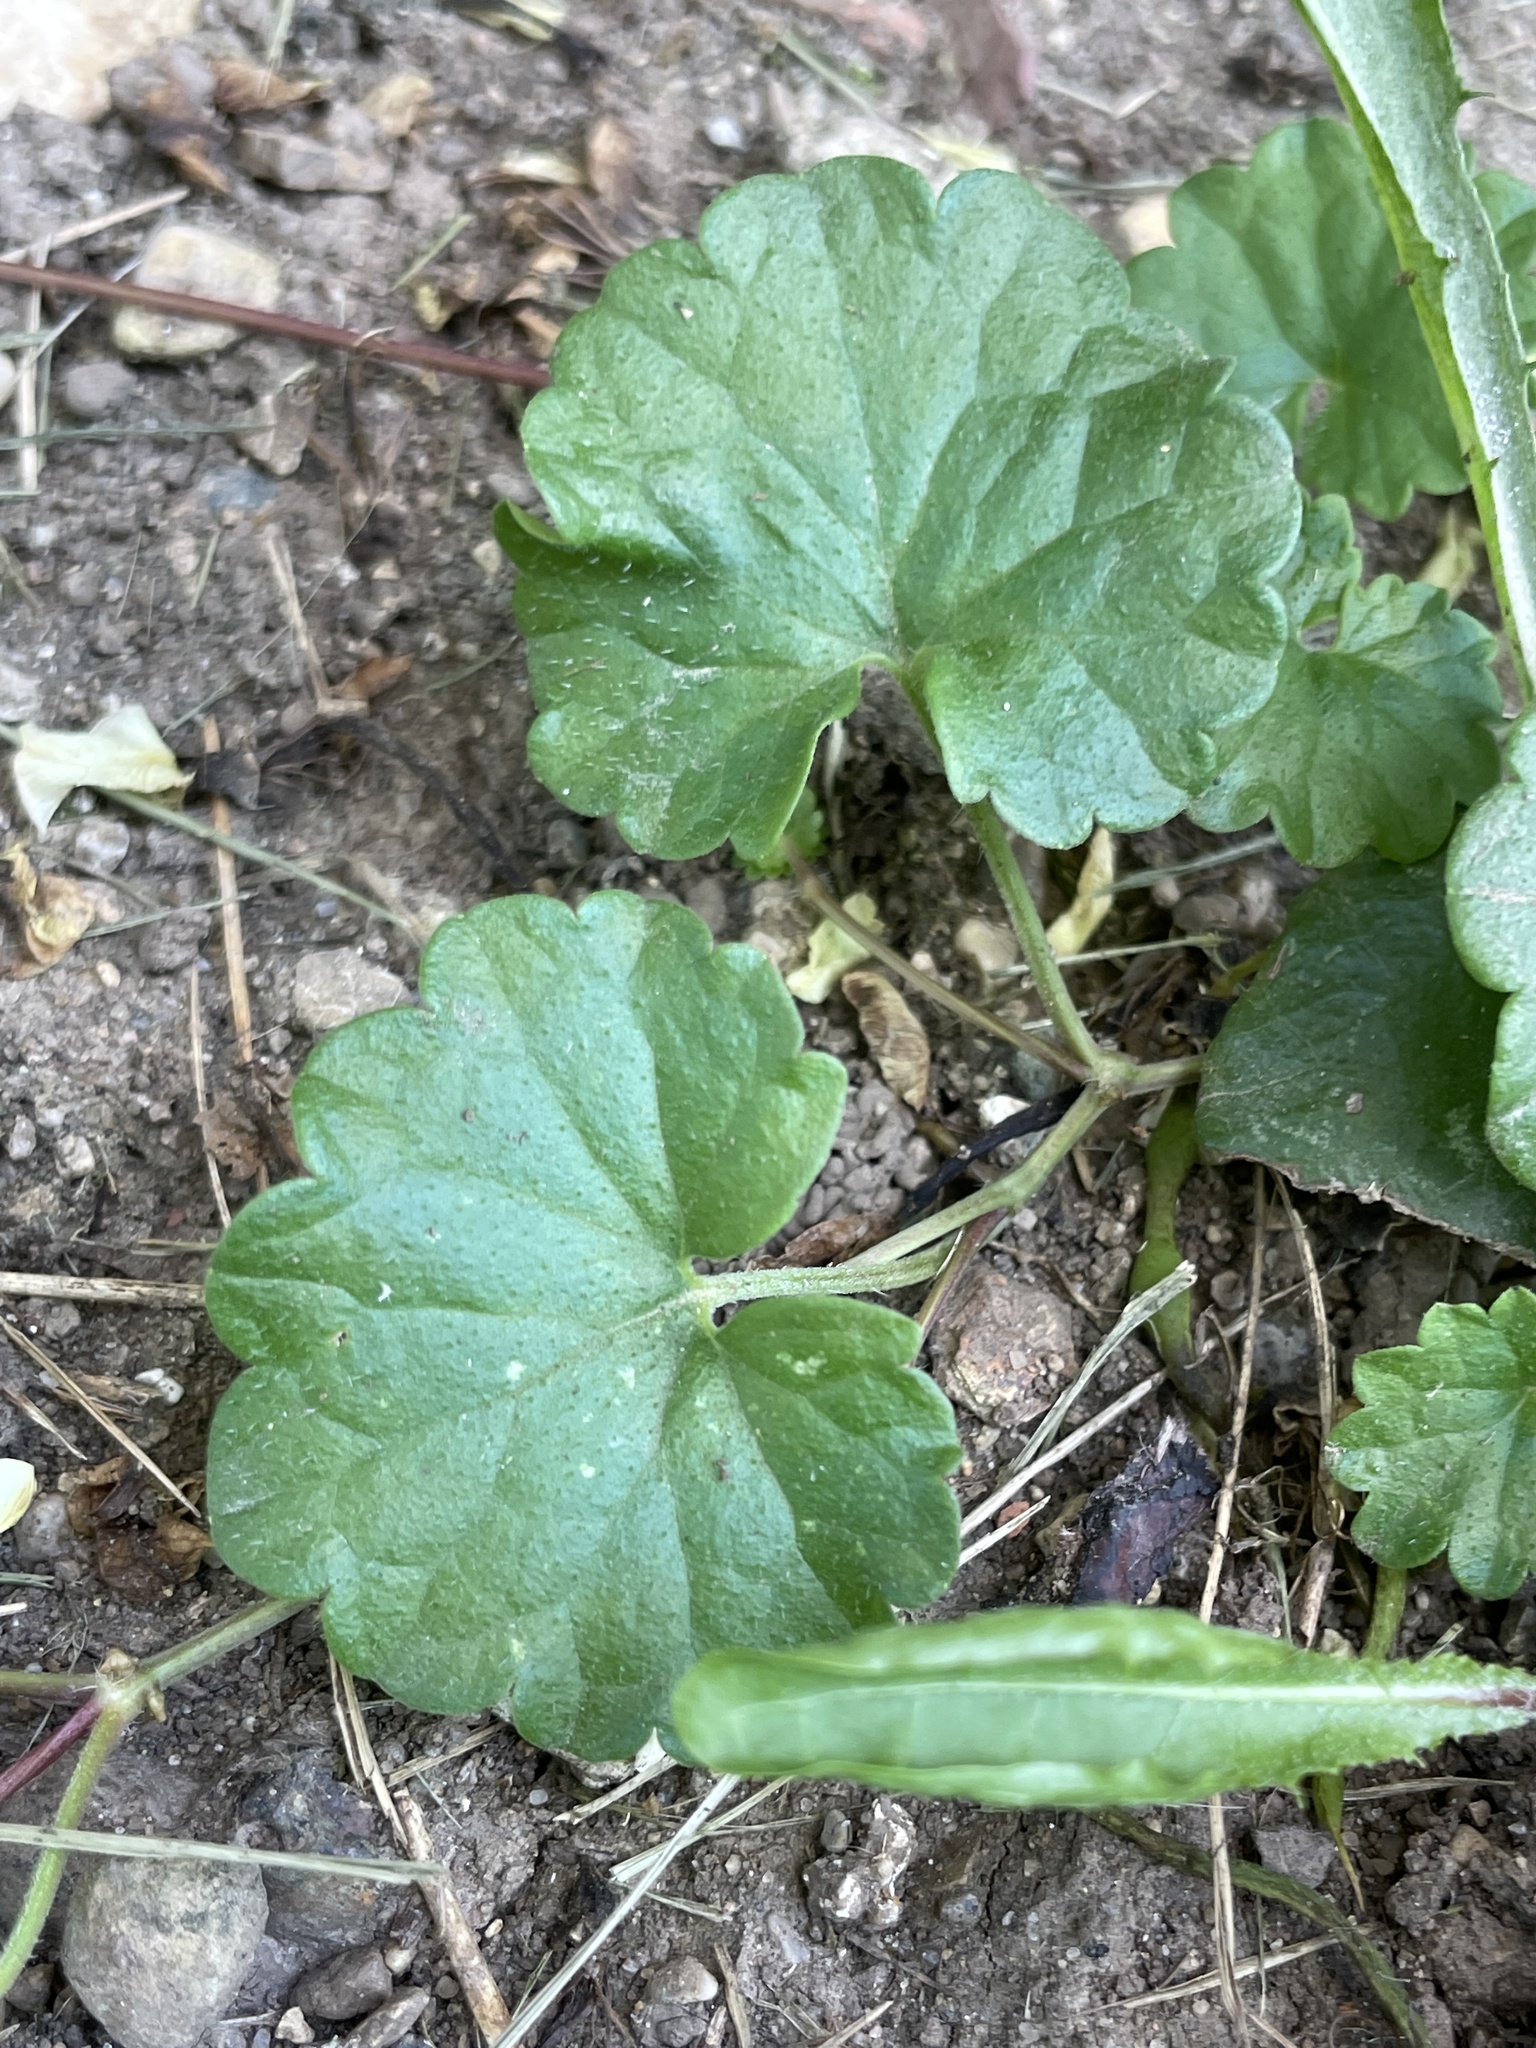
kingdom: Plantae
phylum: Tracheophyta
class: Magnoliopsida
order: Lamiales
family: Lamiaceae
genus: Glechoma
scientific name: Glechoma hederacea
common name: Ground ivy
